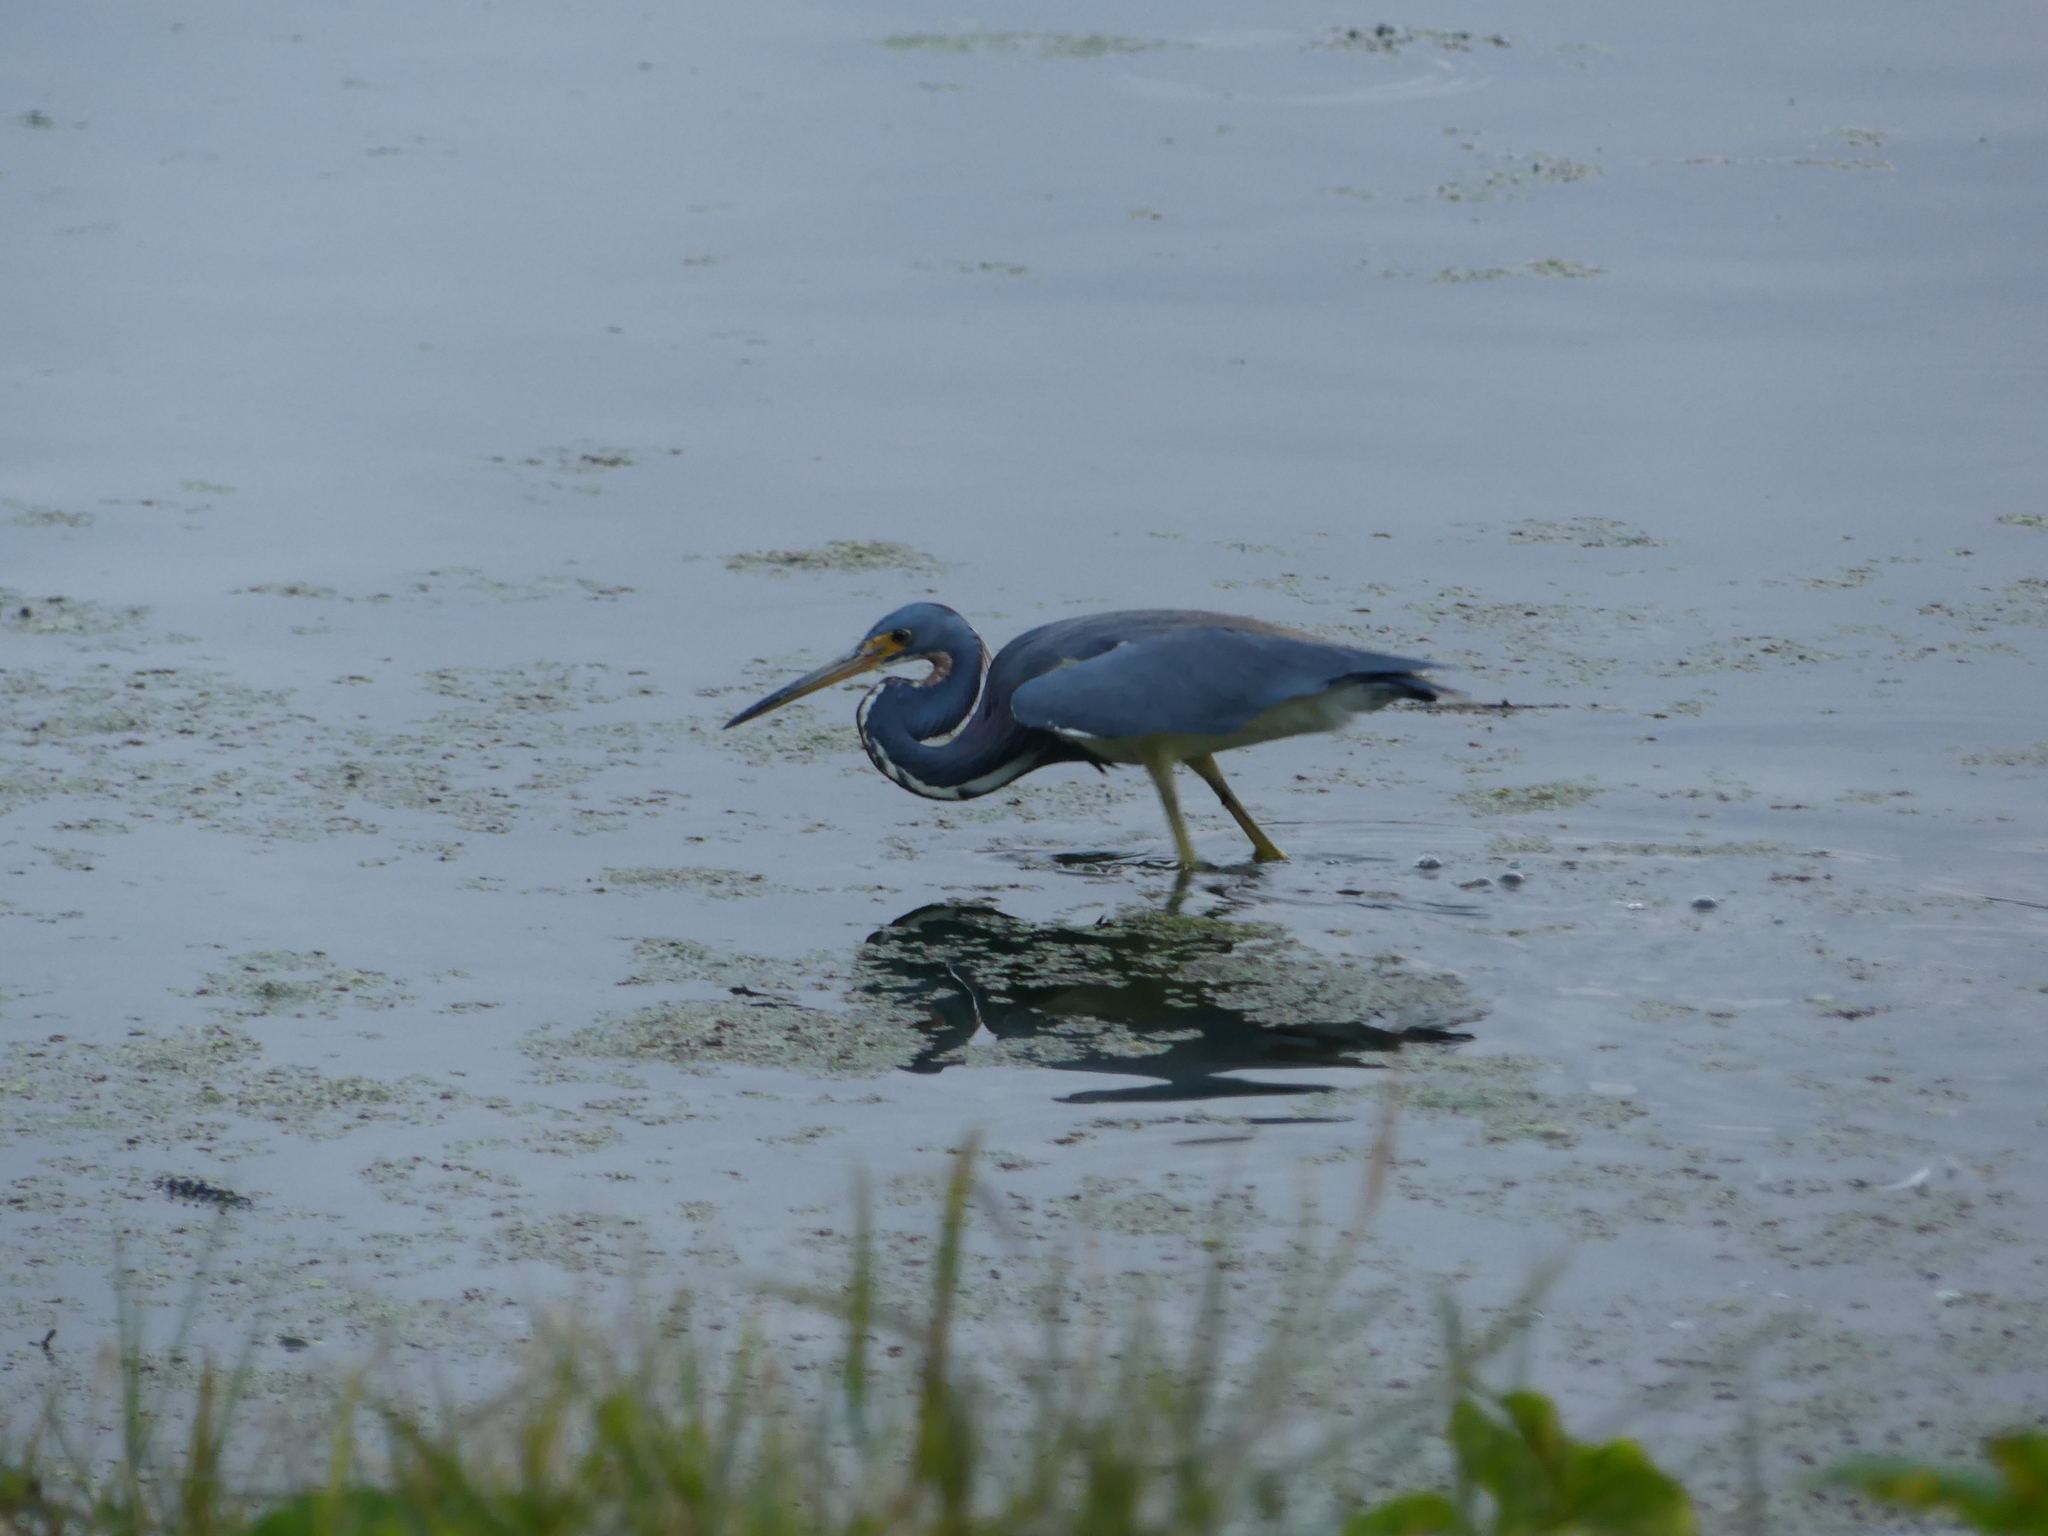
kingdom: Animalia
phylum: Chordata
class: Aves
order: Pelecaniformes
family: Ardeidae
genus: Egretta
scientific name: Egretta tricolor
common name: Tricolored heron
